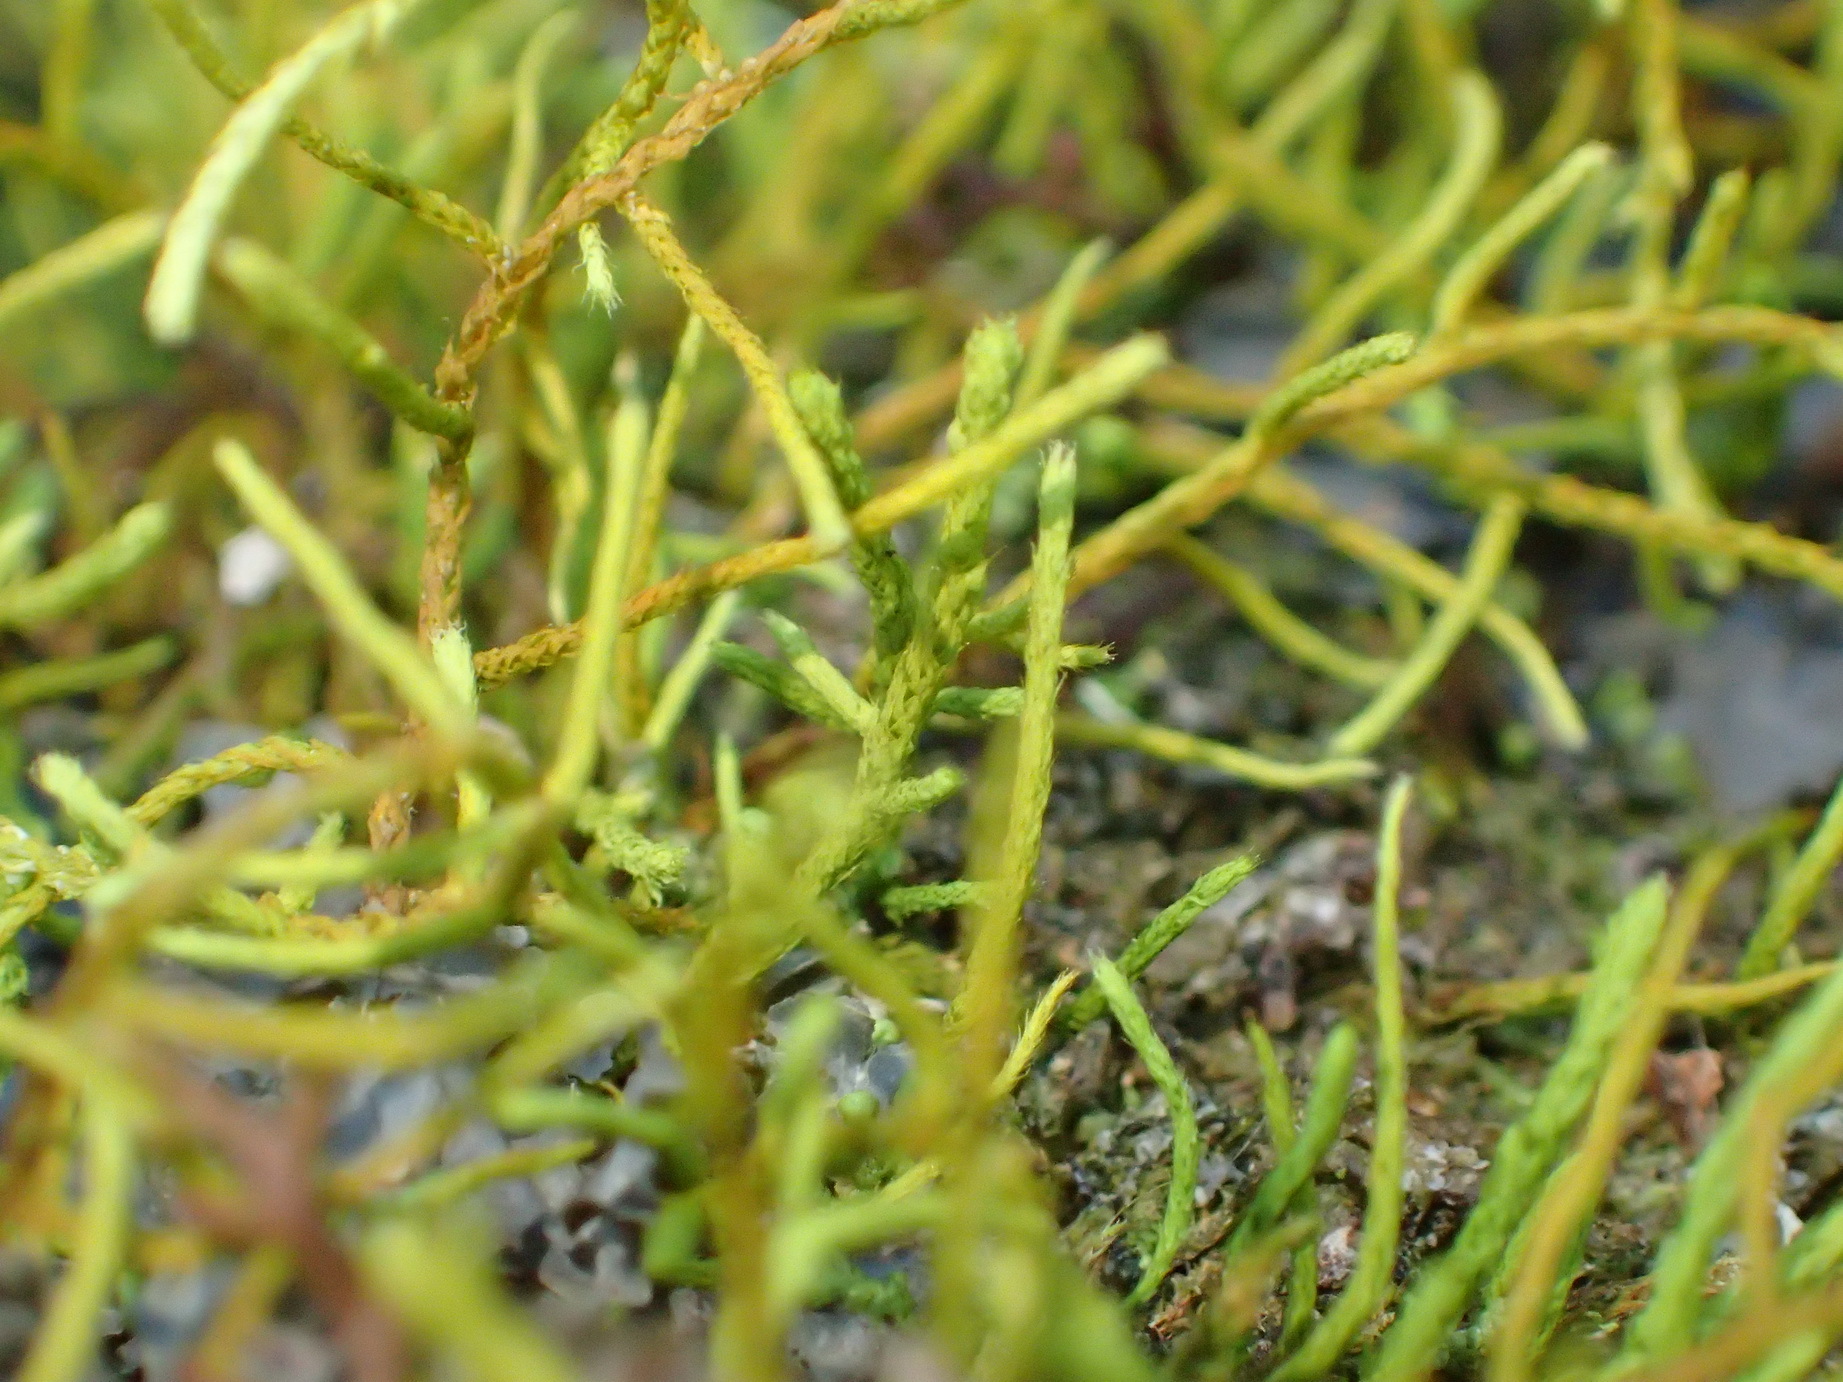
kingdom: Plantae
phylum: Bryophyta
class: Bryopsida
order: Hypnales
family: Meteoriaceae
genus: Papillaria
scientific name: Papillaria africana
